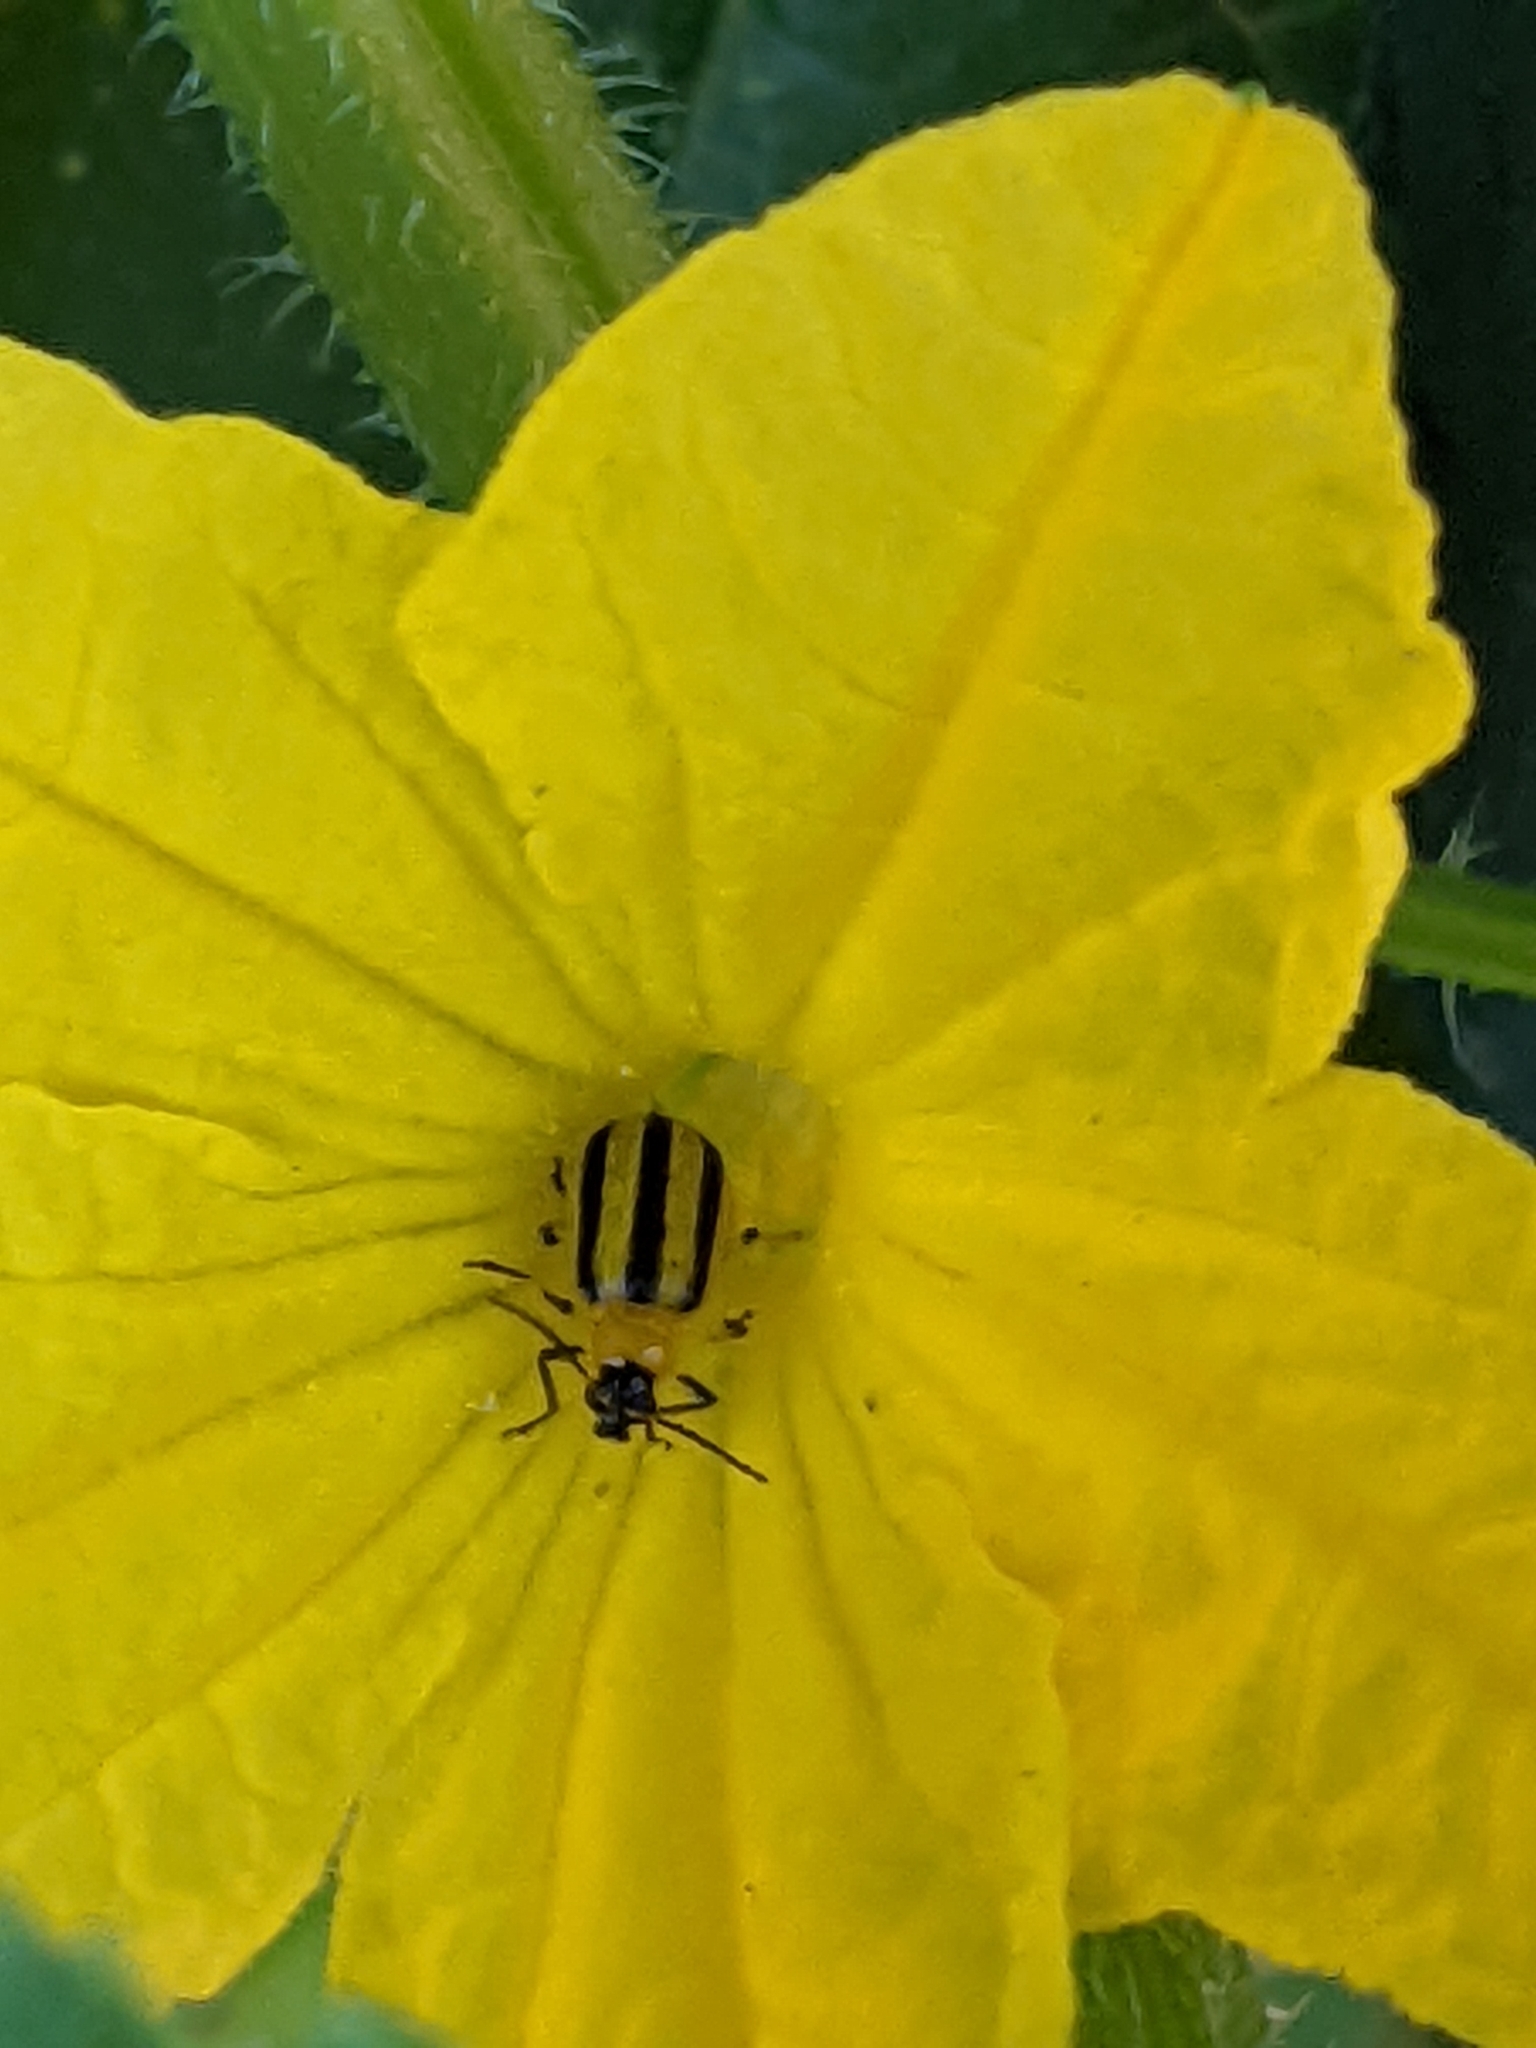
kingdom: Animalia
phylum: Arthropoda
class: Insecta
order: Coleoptera
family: Chrysomelidae
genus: Acalymma
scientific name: Acalymma vittatum
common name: Striped cucumber beetle
